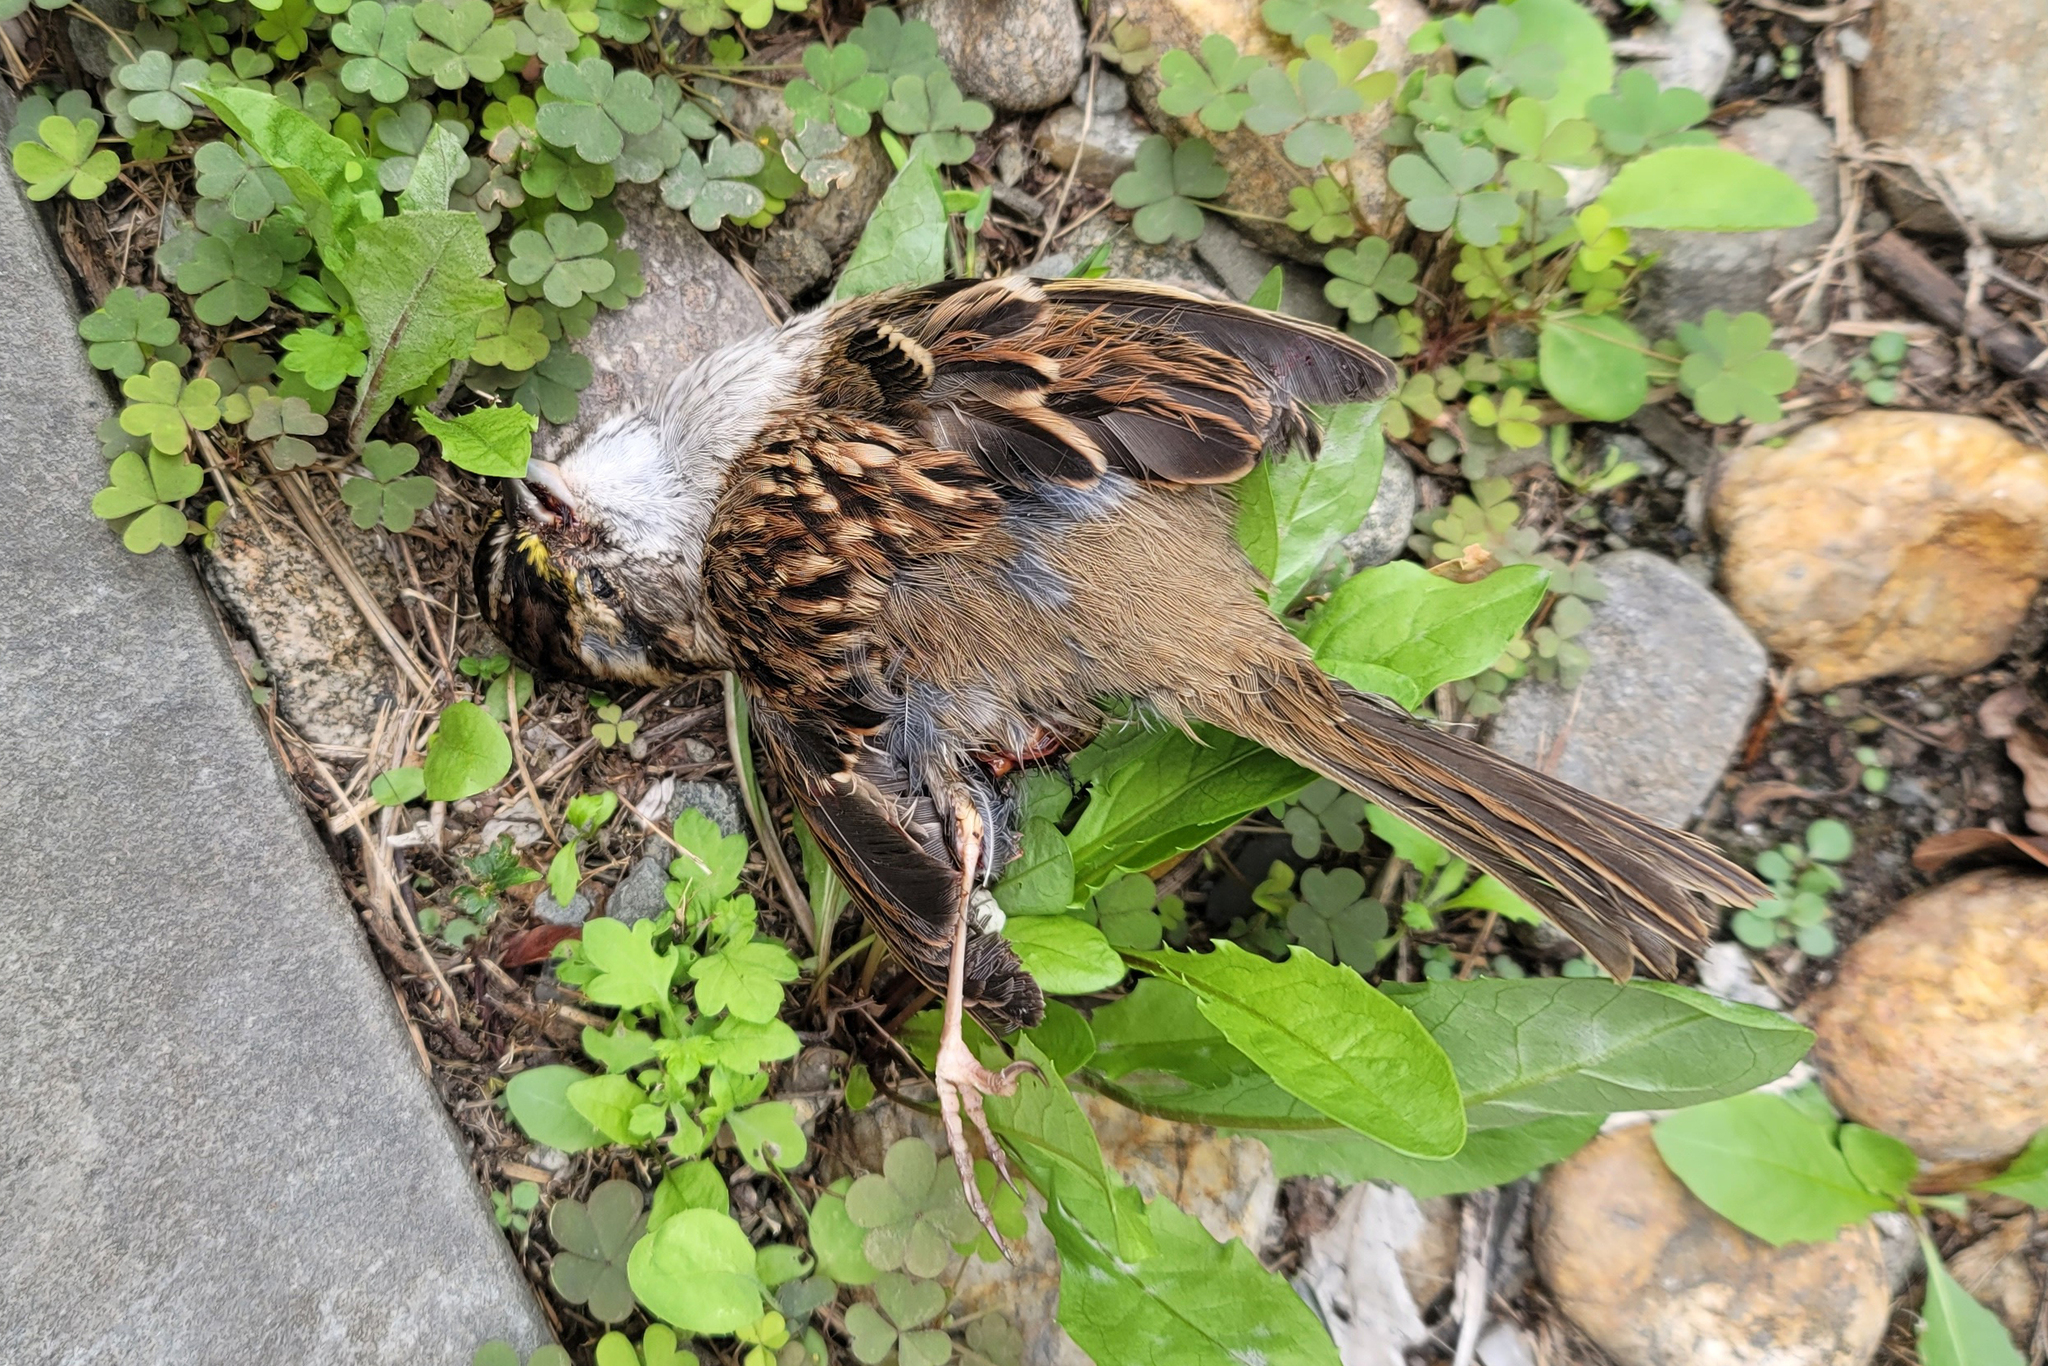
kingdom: Animalia
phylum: Chordata
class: Aves
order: Passeriformes
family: Passerellidae
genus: Zonotrichia
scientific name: Zonotrichia albicollis
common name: White-throated sparrow
